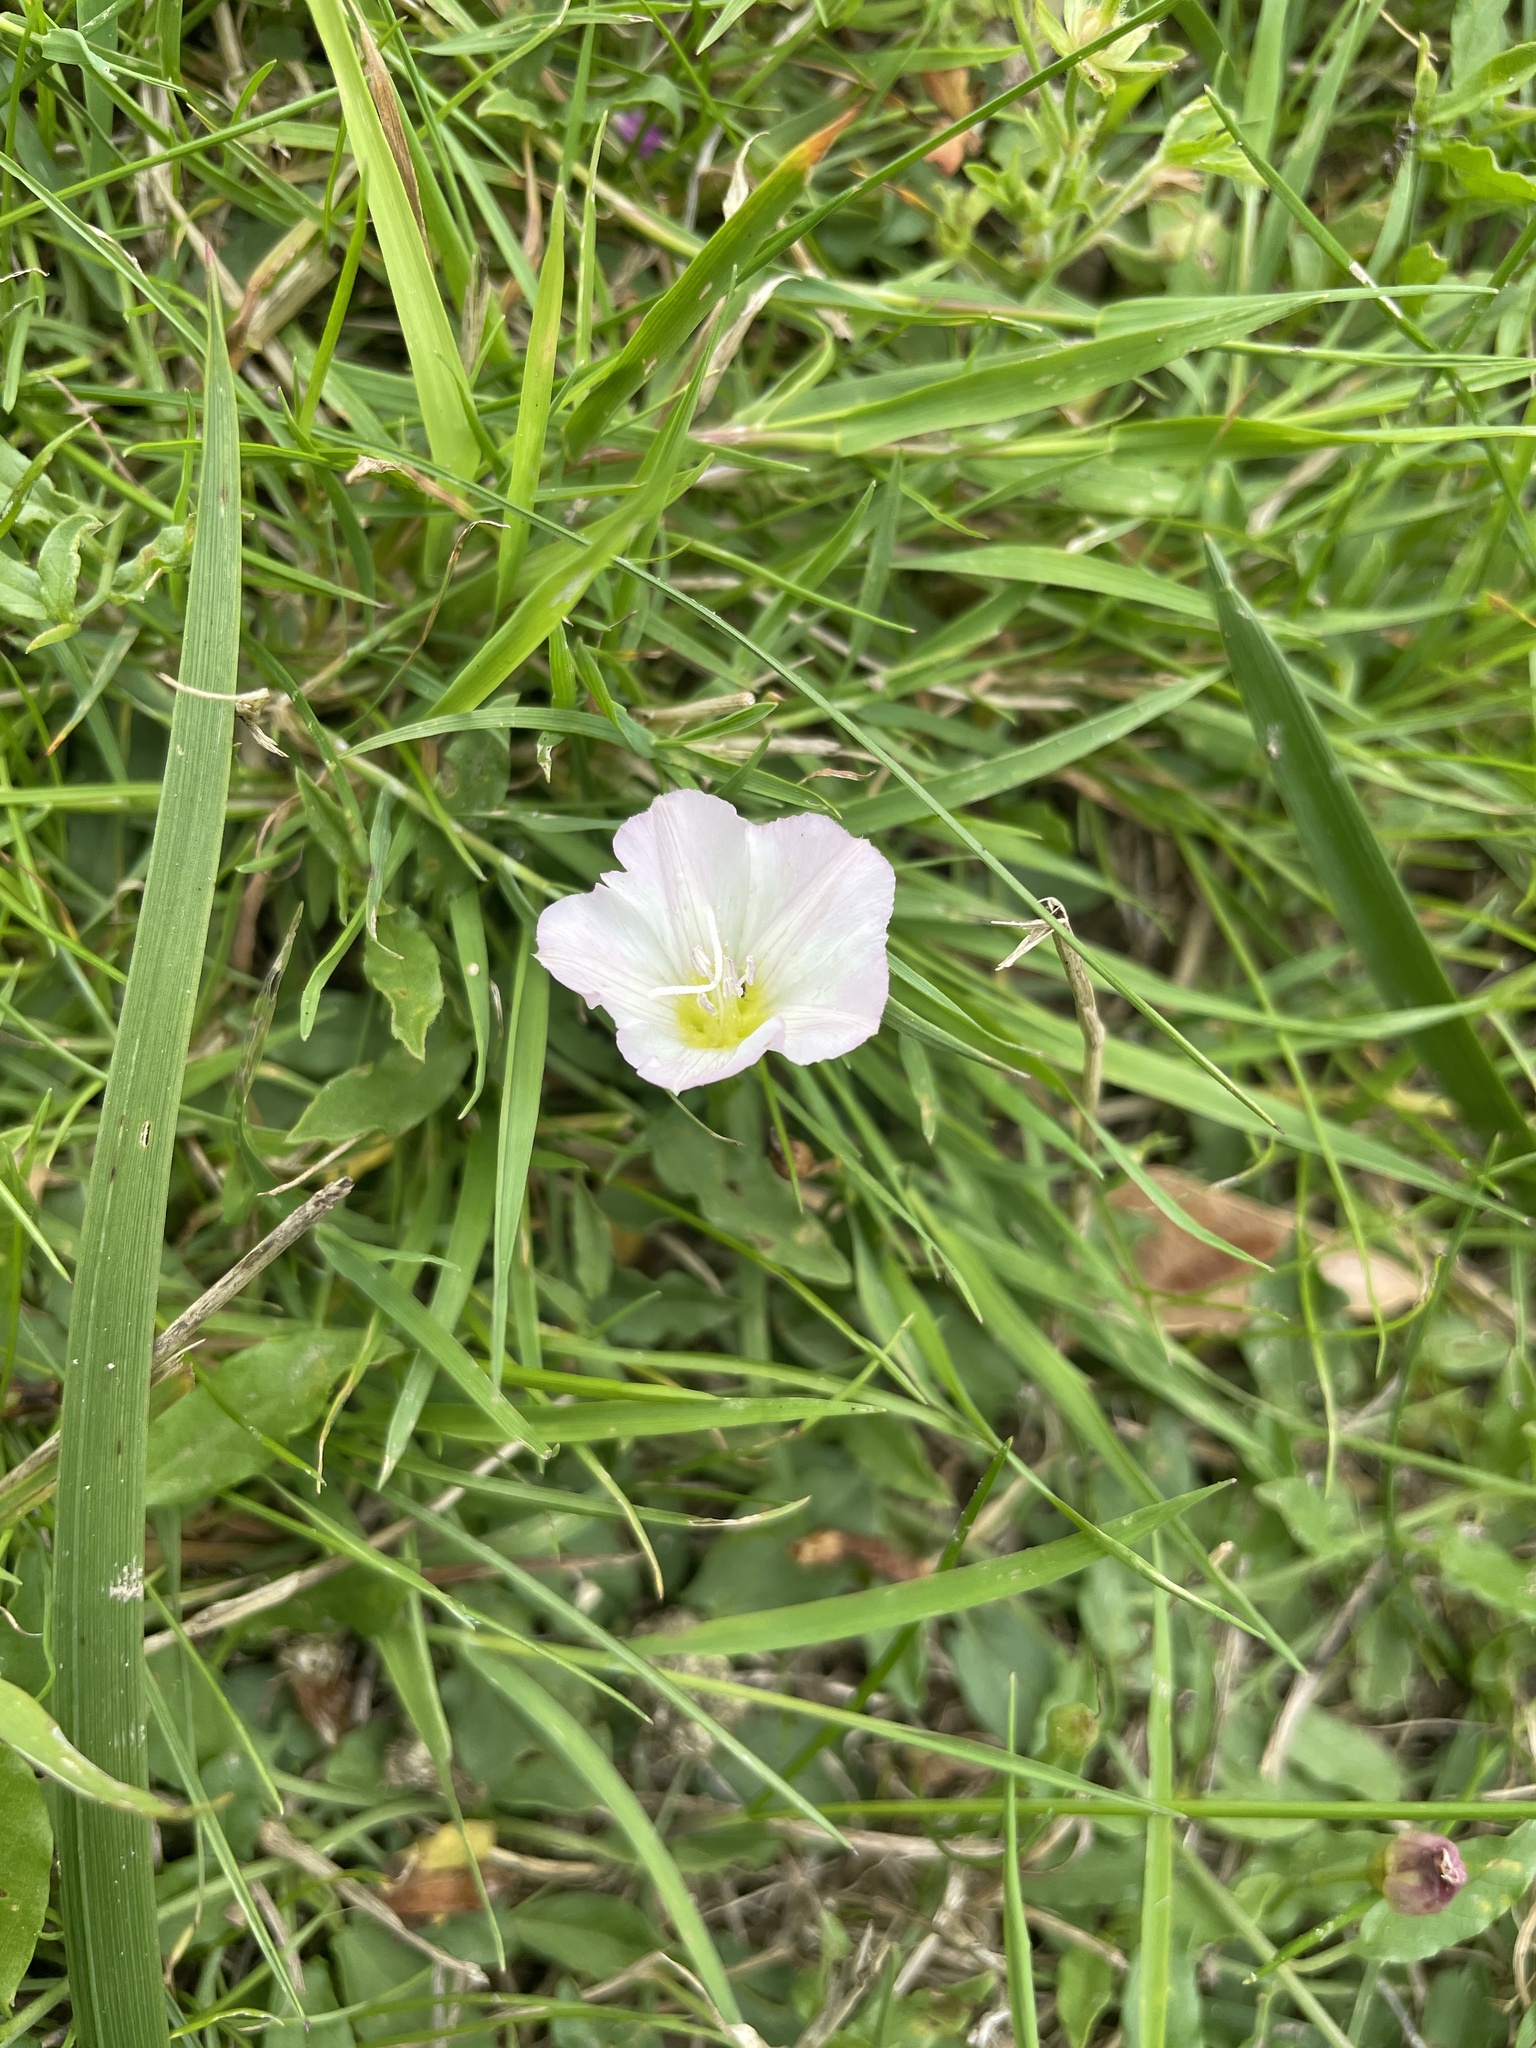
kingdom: Plantae
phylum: Tracheophyta
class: Magnoliopsida
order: Solanales
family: Convolvulaceae
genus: Convolvulus
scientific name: Convolvulus arvensis
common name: Field bindweed
